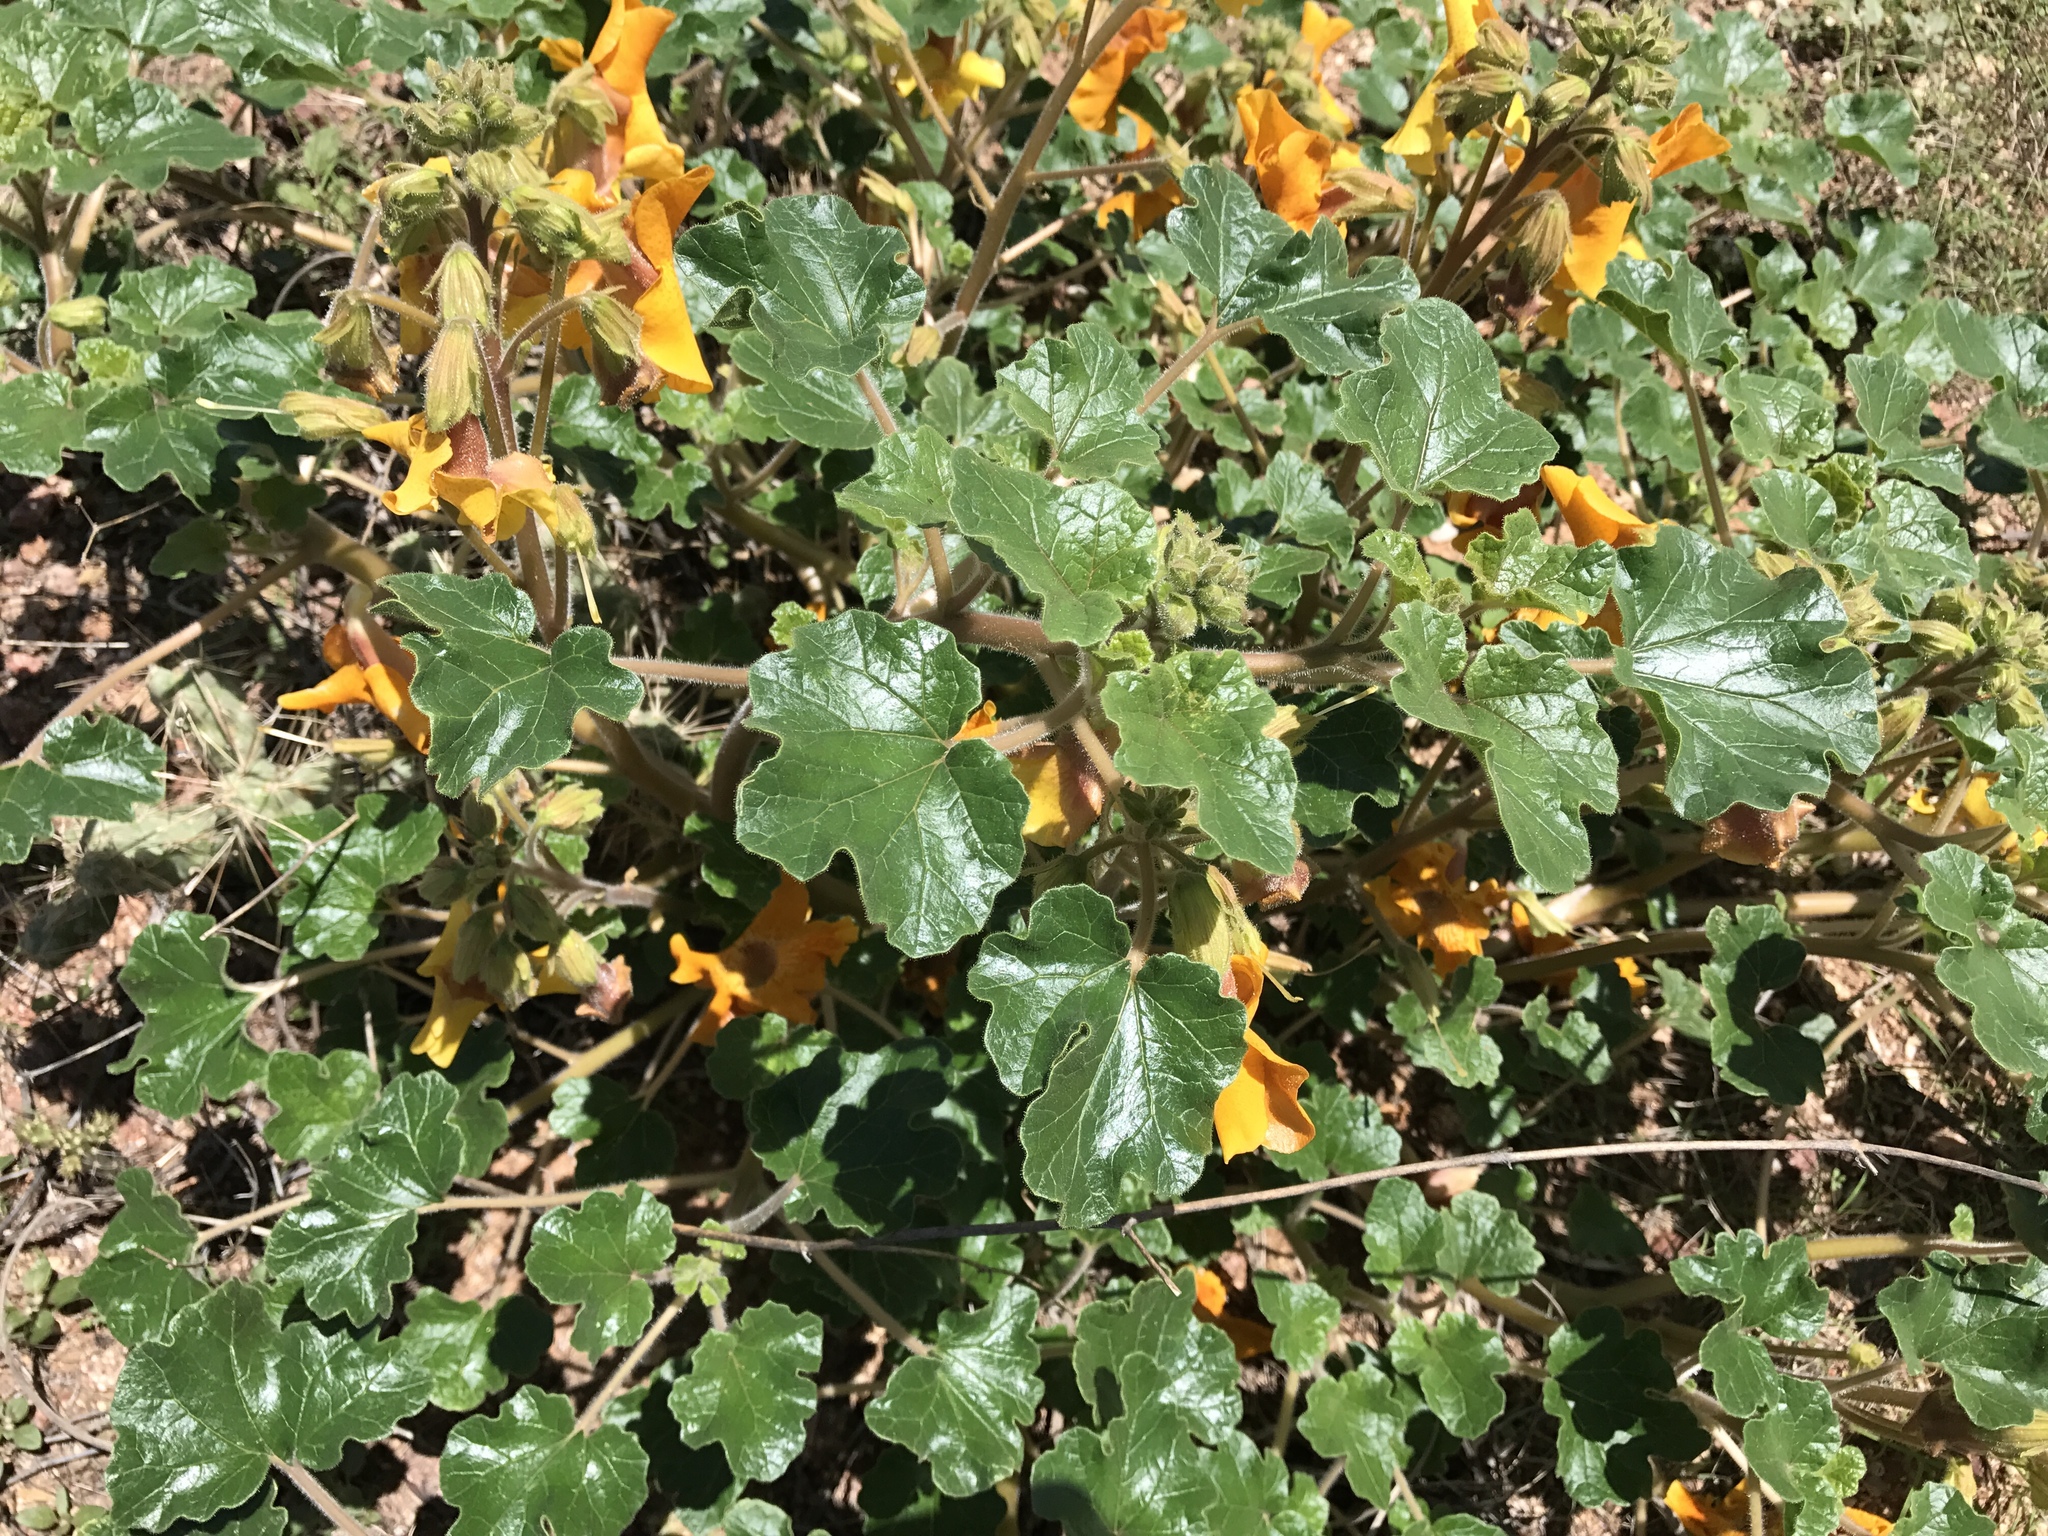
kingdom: Plantae
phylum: Tracheophyta
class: Magnoliopsida
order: Lamiales
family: Martyniaceae
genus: Proboscidea
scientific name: Proboscidea althaeifolia
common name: Desert unicorn-plant
